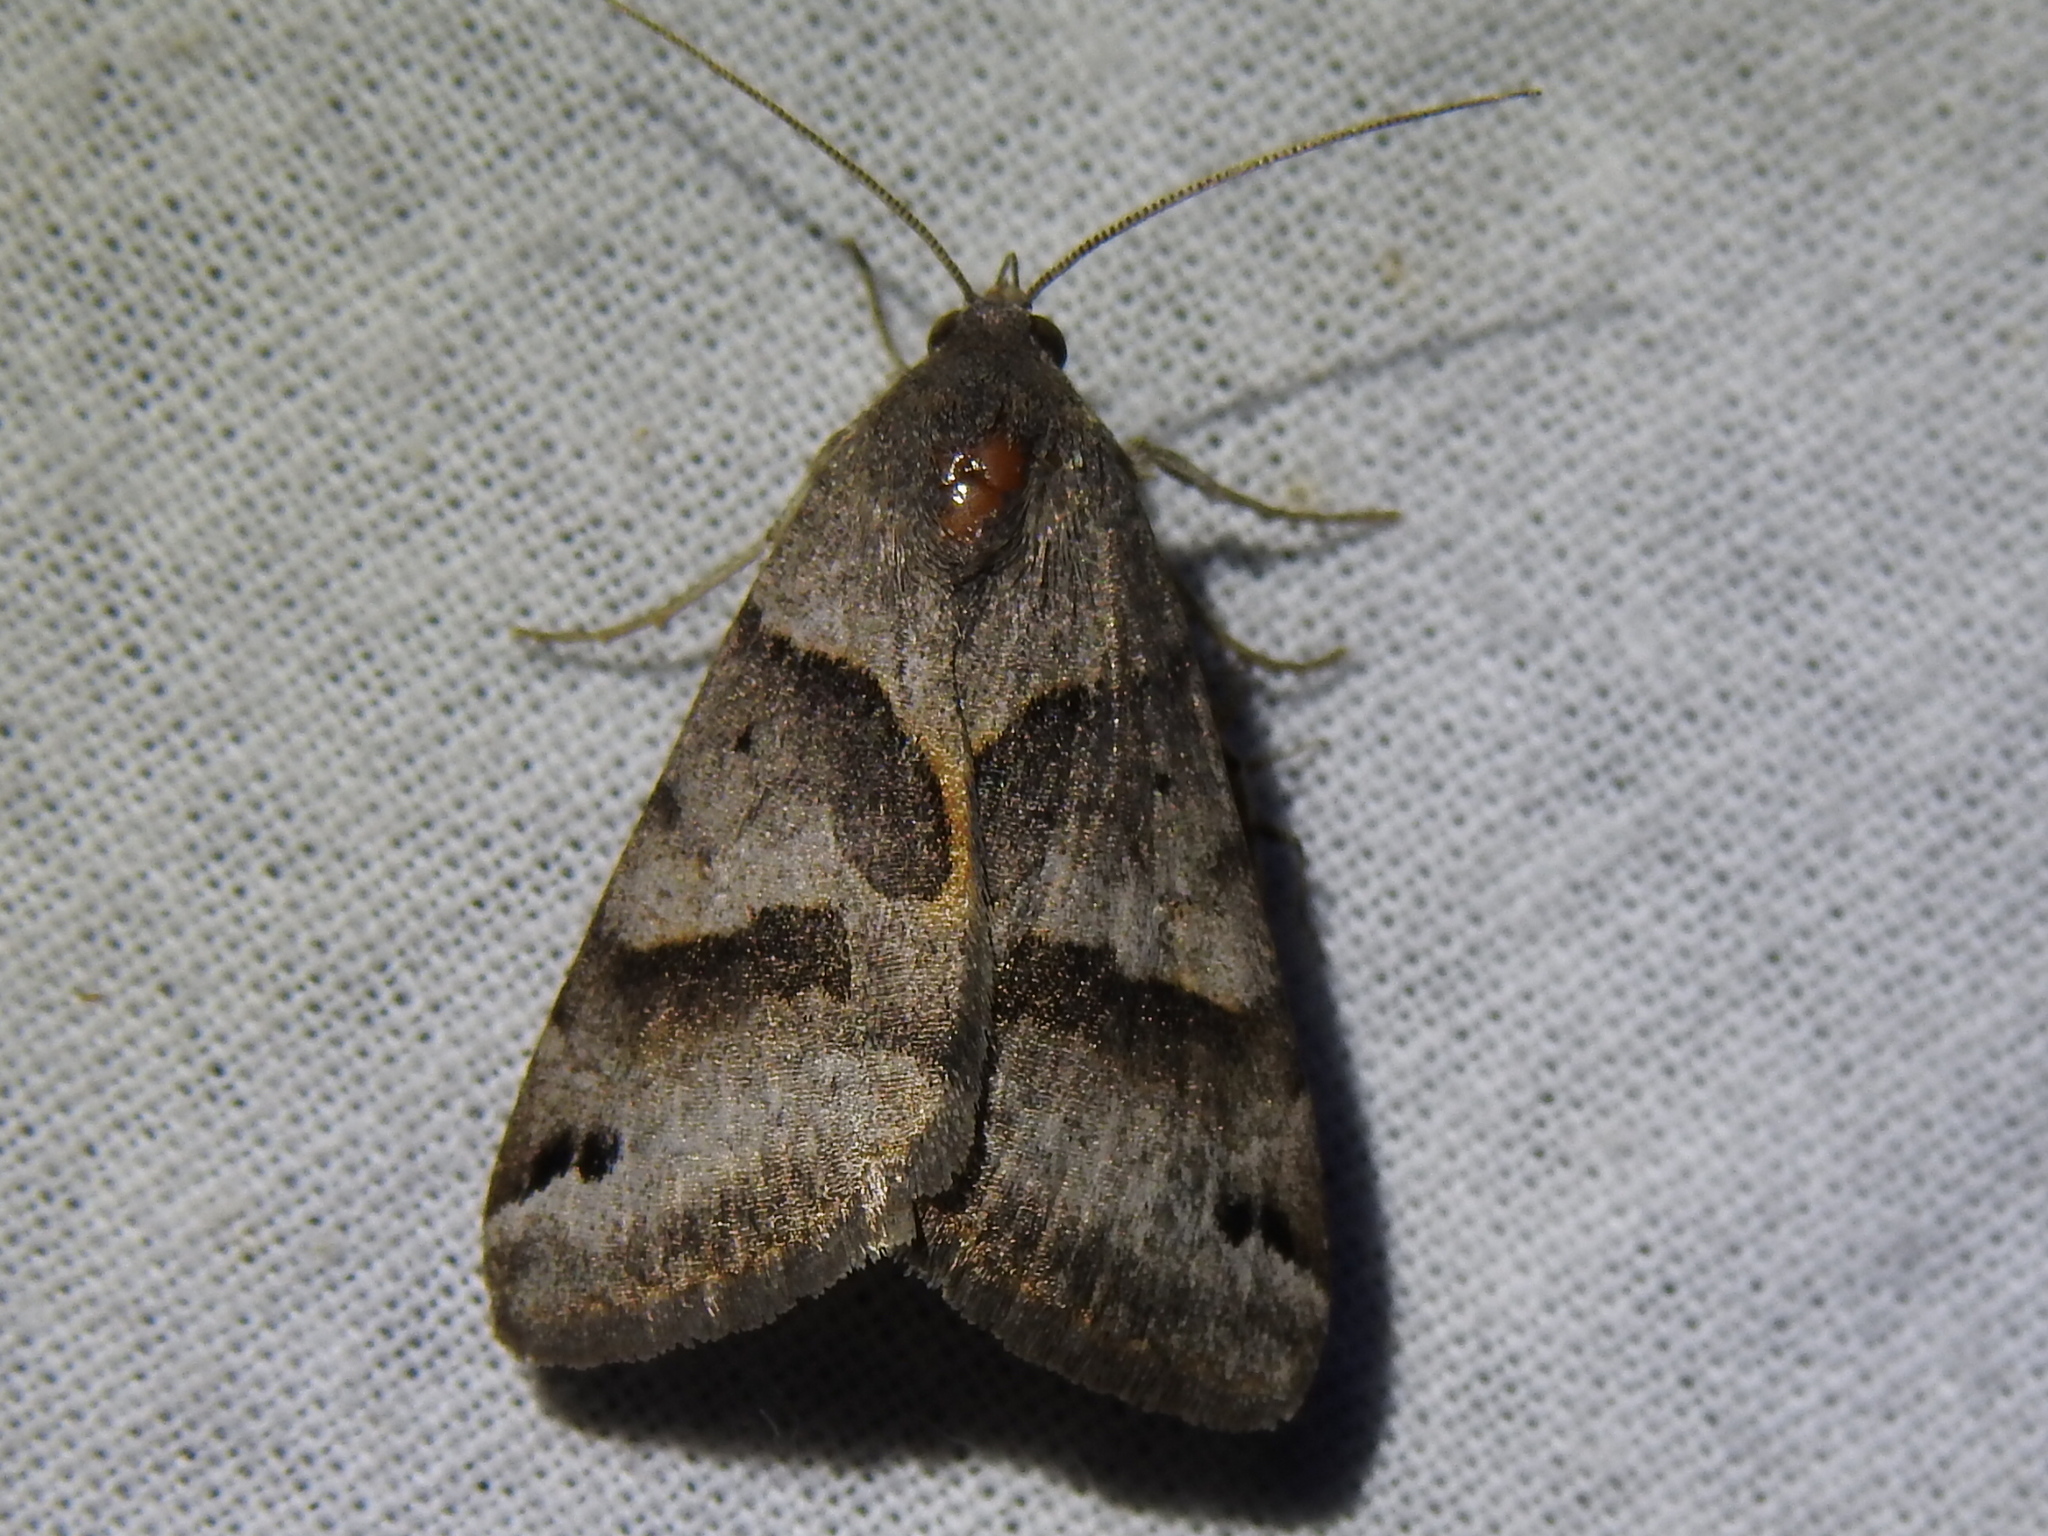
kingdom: Animalia
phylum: Arthropoda
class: Insecta
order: Lepidoptera
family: Erebidae
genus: Caenurgina
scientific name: Caenurgina erechtea
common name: Forage looper moth
